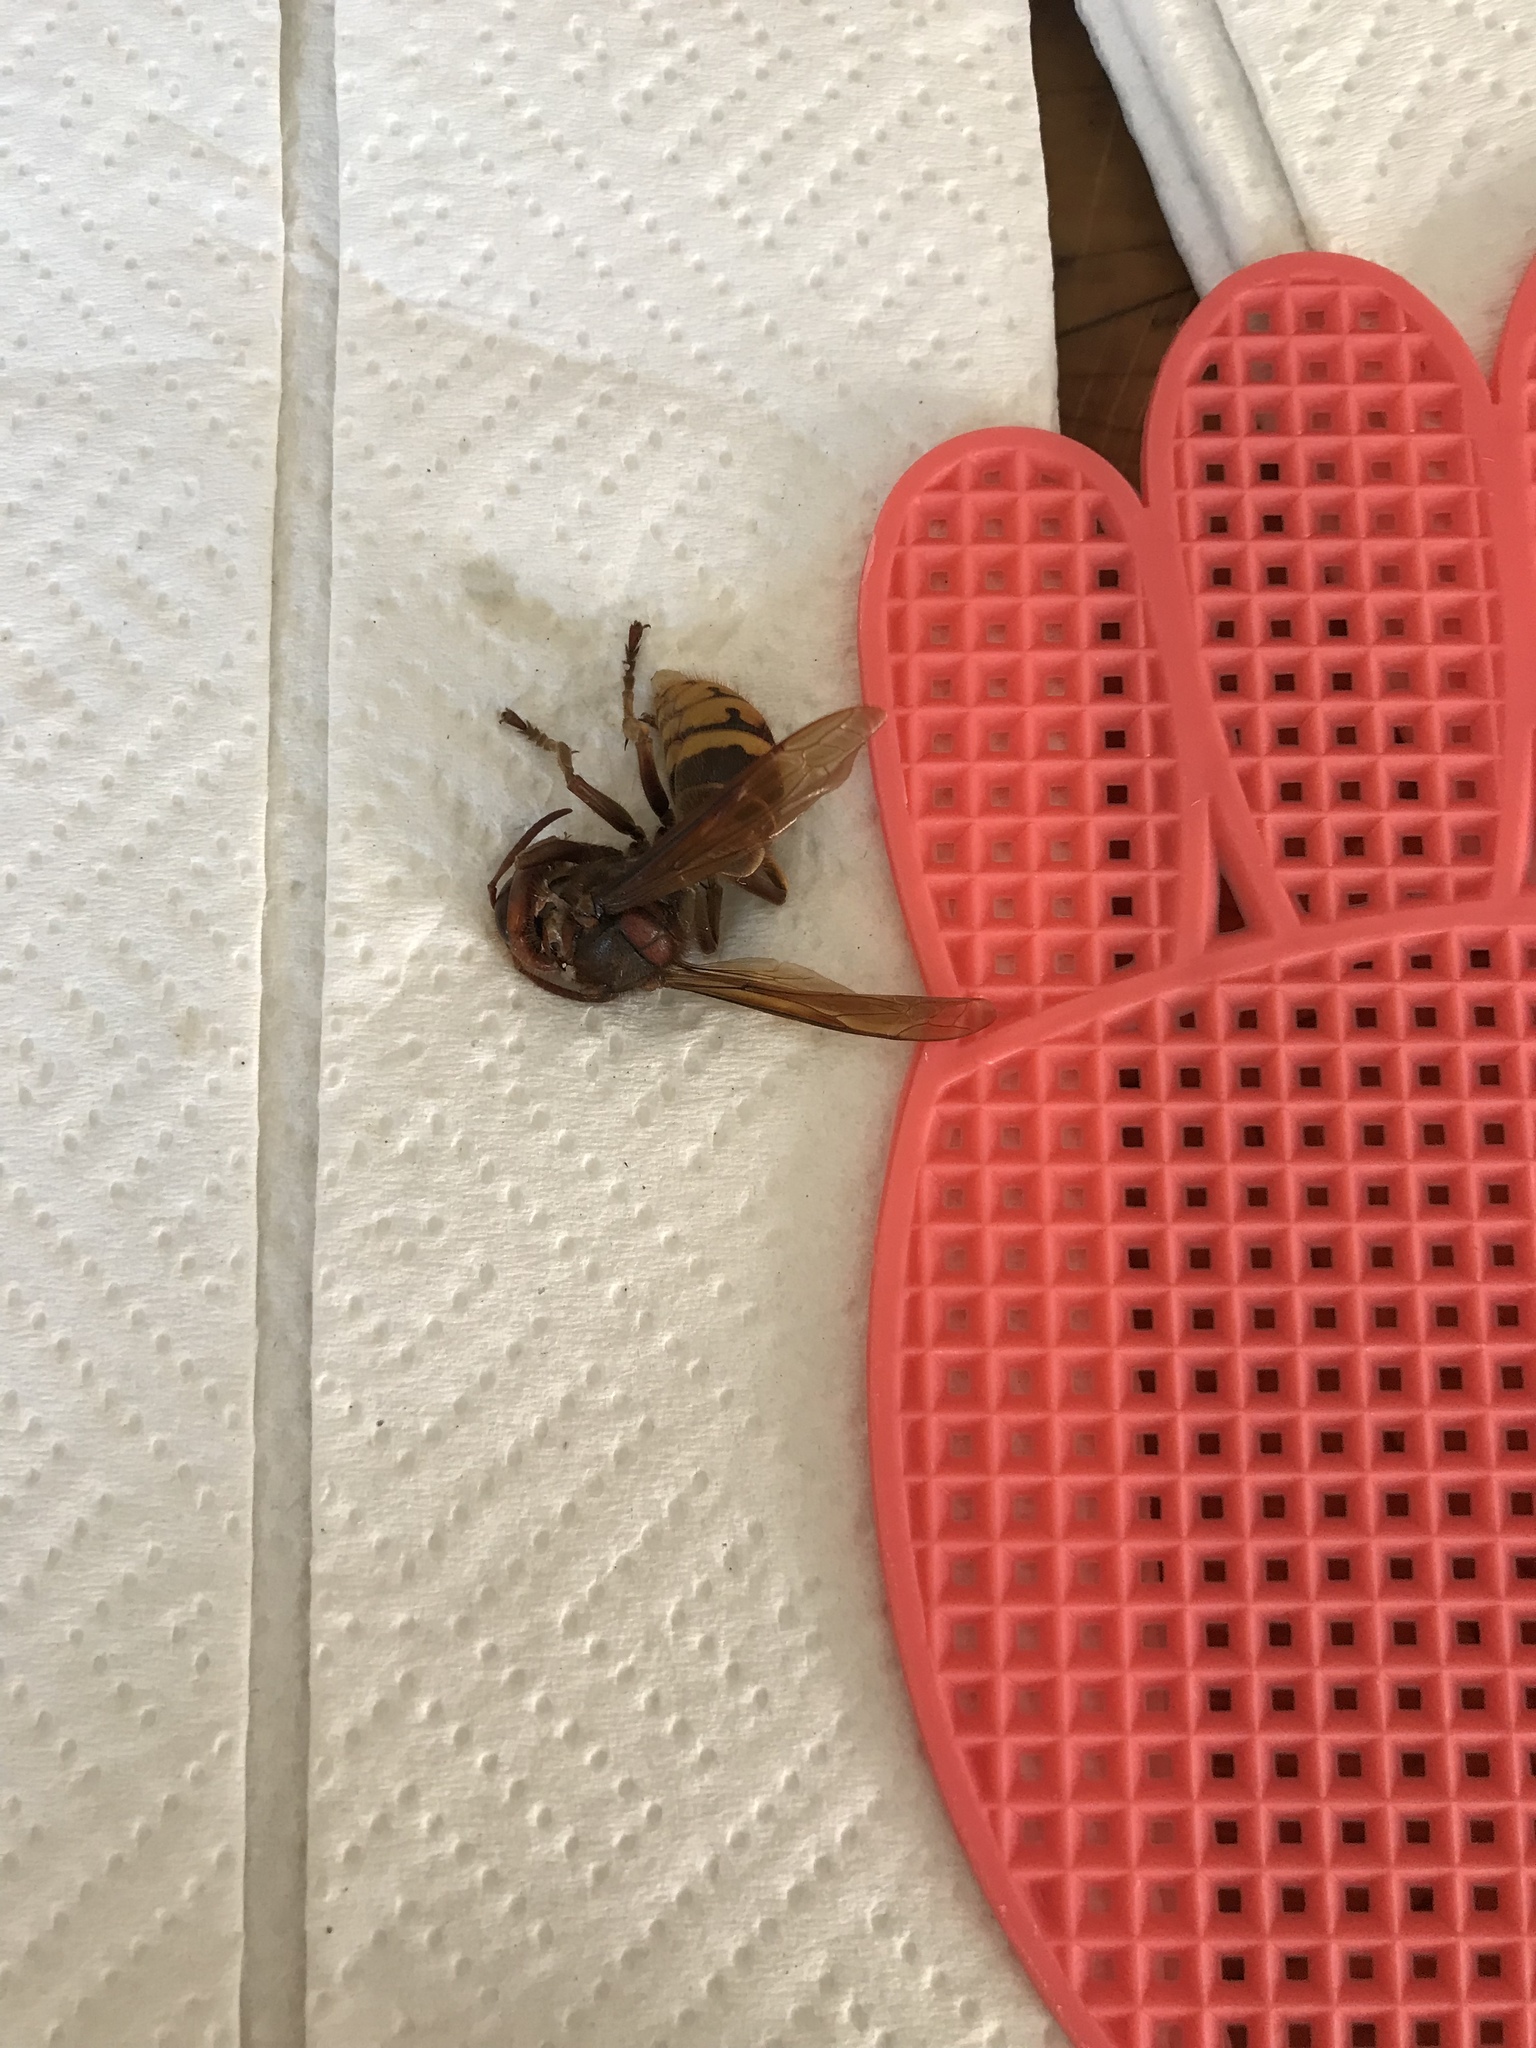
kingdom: Animalia
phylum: Arthropoda
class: Insecta
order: Hymenoptera
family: Vespidae
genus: Vespa
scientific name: Vespa crabro
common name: Hornet
